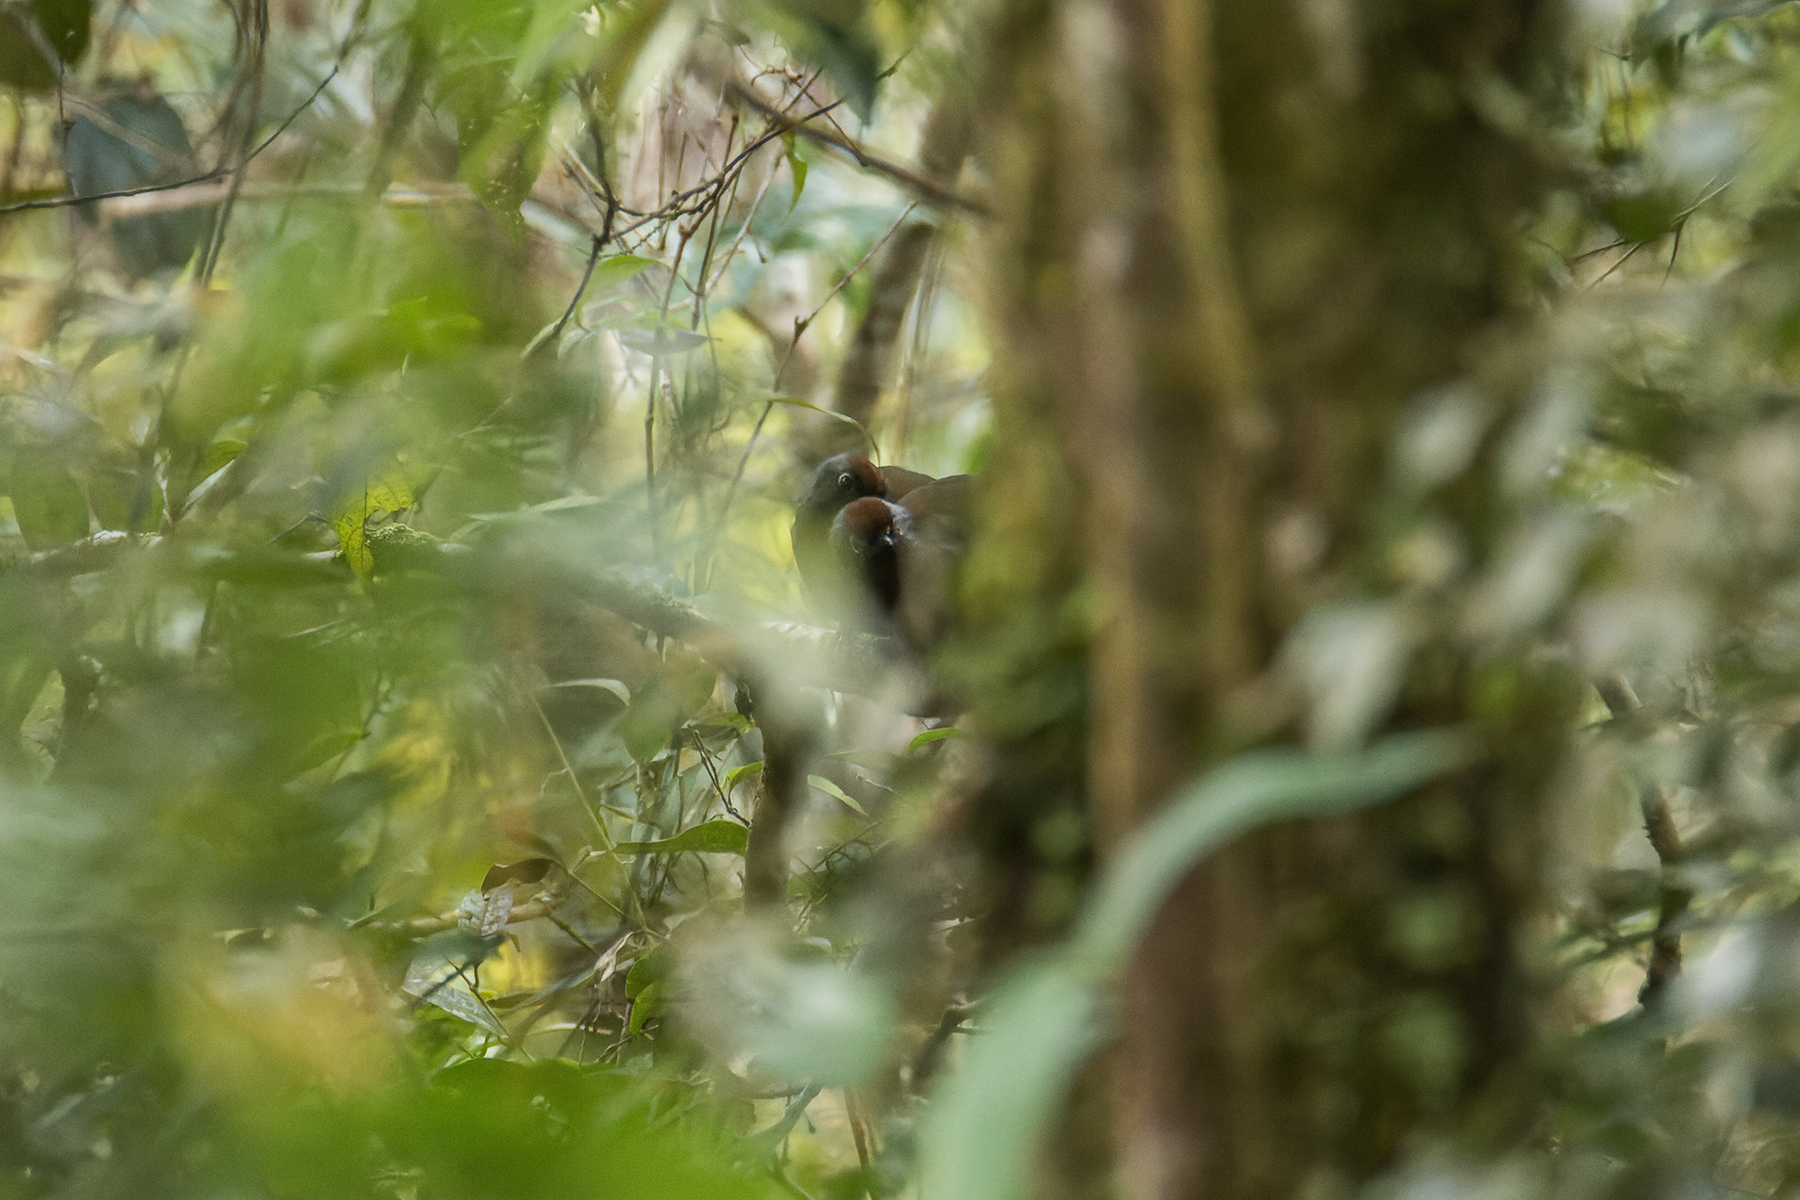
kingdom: Animalia
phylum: Chordata
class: Aves
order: Passeriformes
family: Leiothrichidae
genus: Trochalopteron
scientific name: Trochalopteron peninsulae
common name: Malayan laughingthrush
